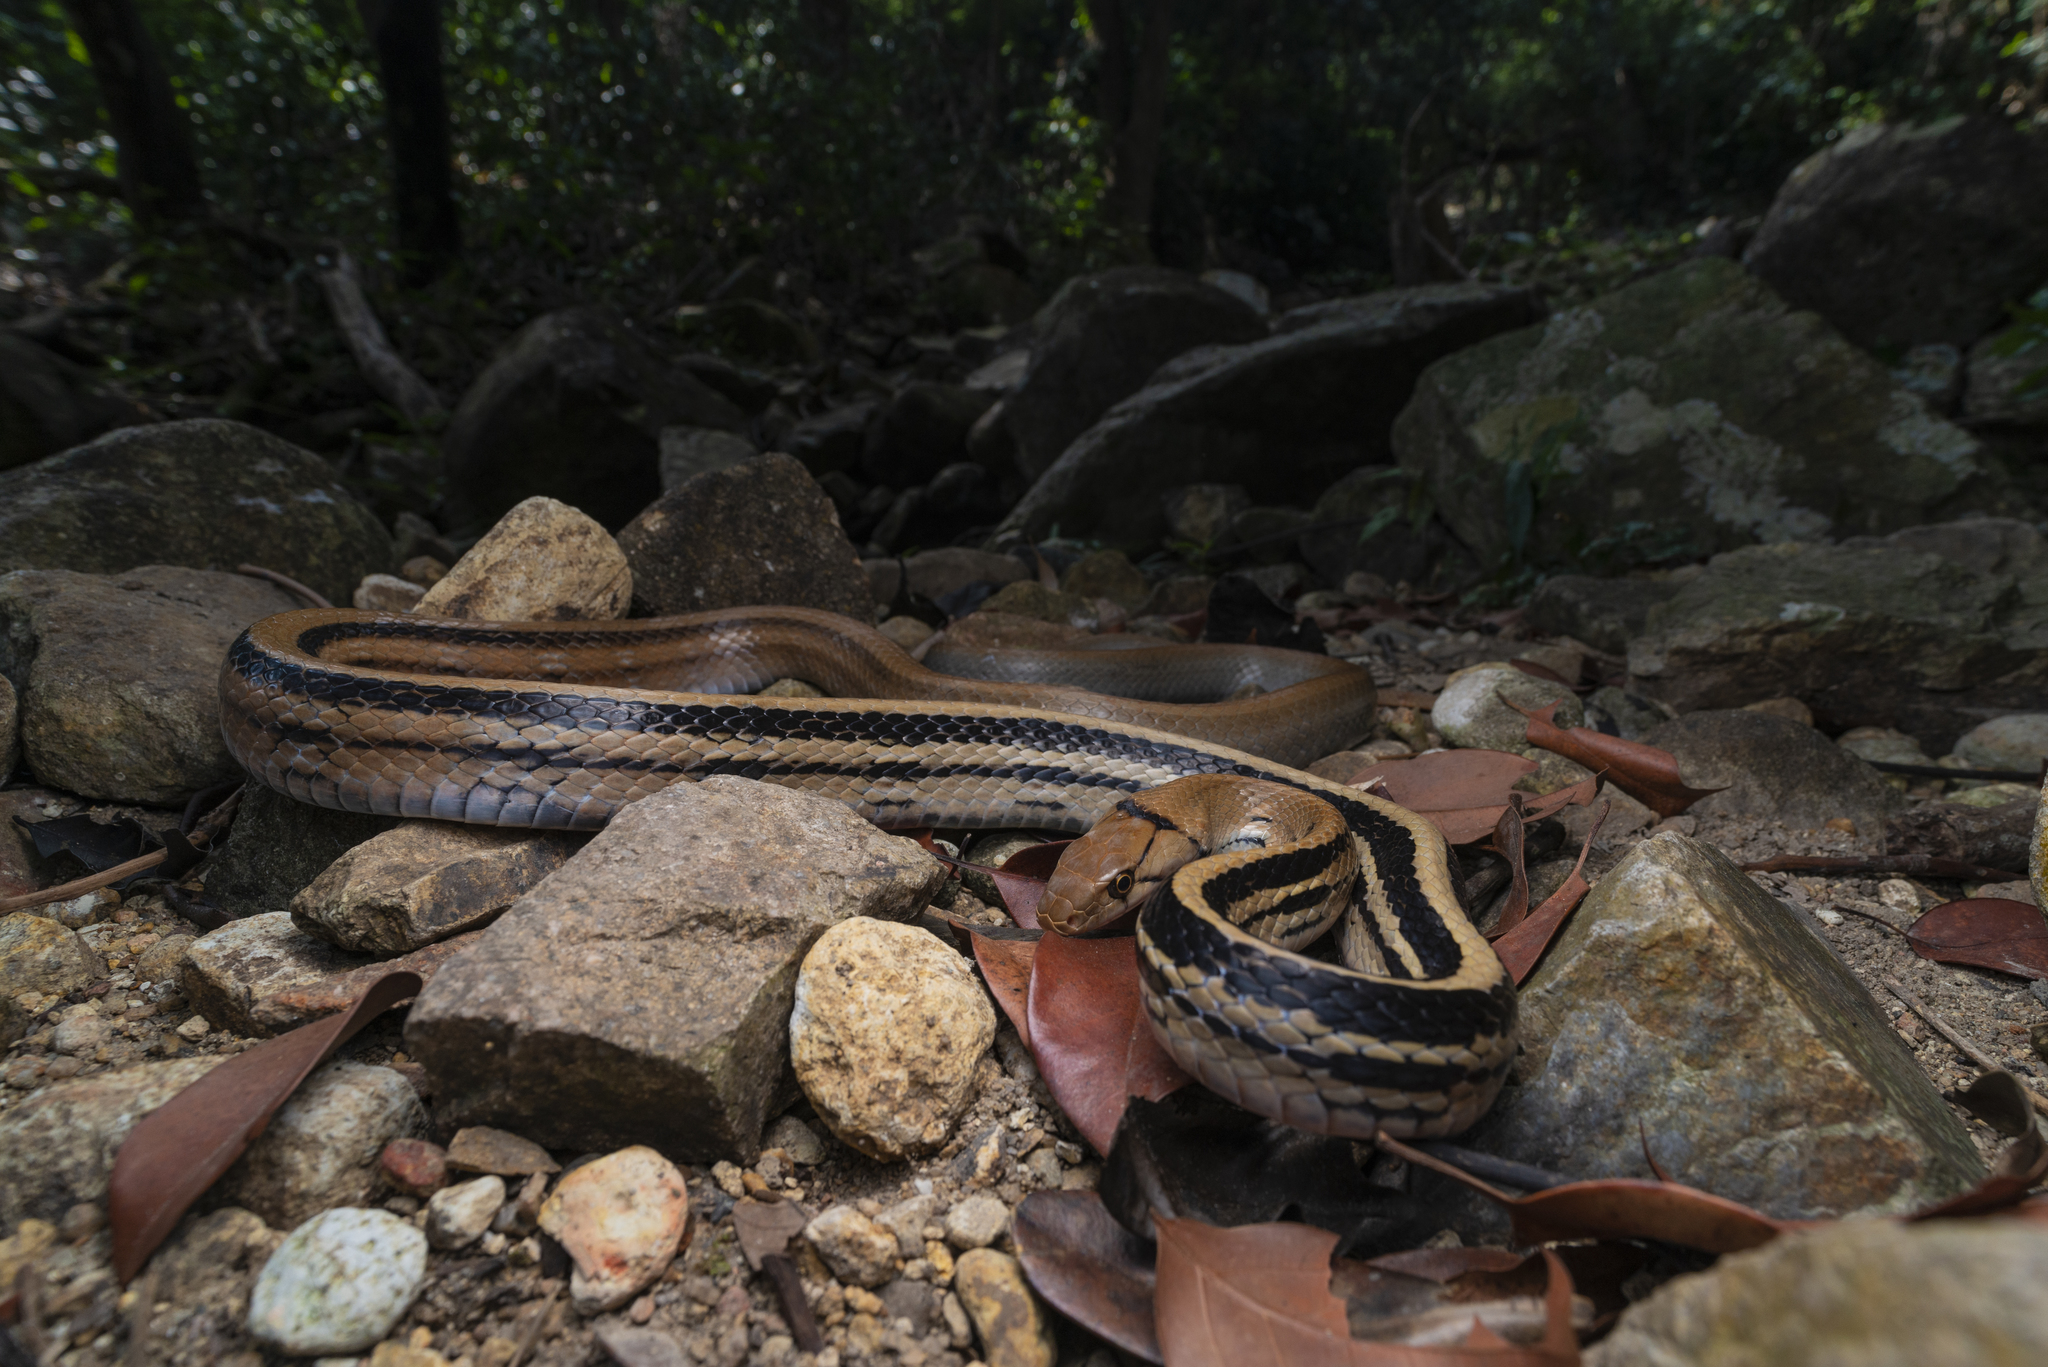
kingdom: Animalia
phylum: Chordata
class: Squamata
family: Colubridae
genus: Coelognathus
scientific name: Coelognathus radiatus
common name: Copperhead rat snake
